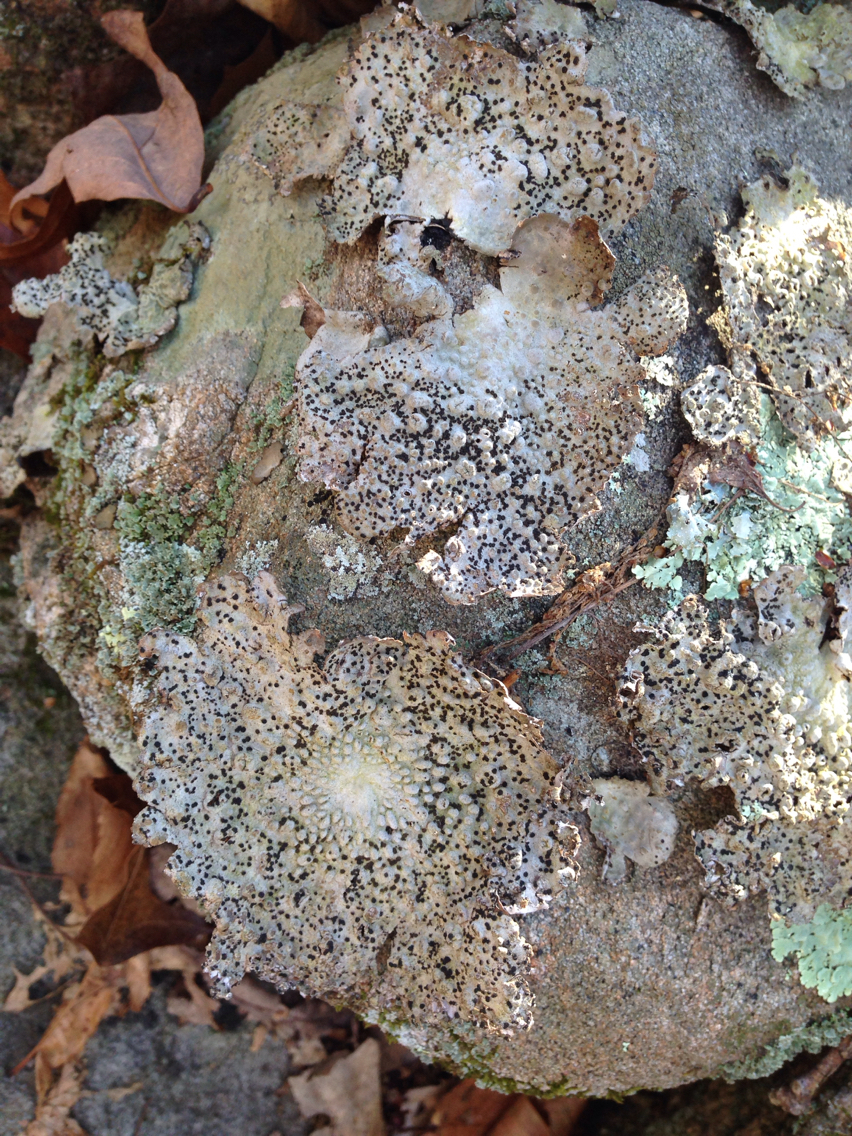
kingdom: Fungi
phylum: Ascomycota
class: Lecanoromycetes
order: Umbilicariales
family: Umbilicariaceae
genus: Lasallia
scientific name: Lasallia papulosa
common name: Common toadskin lichen
